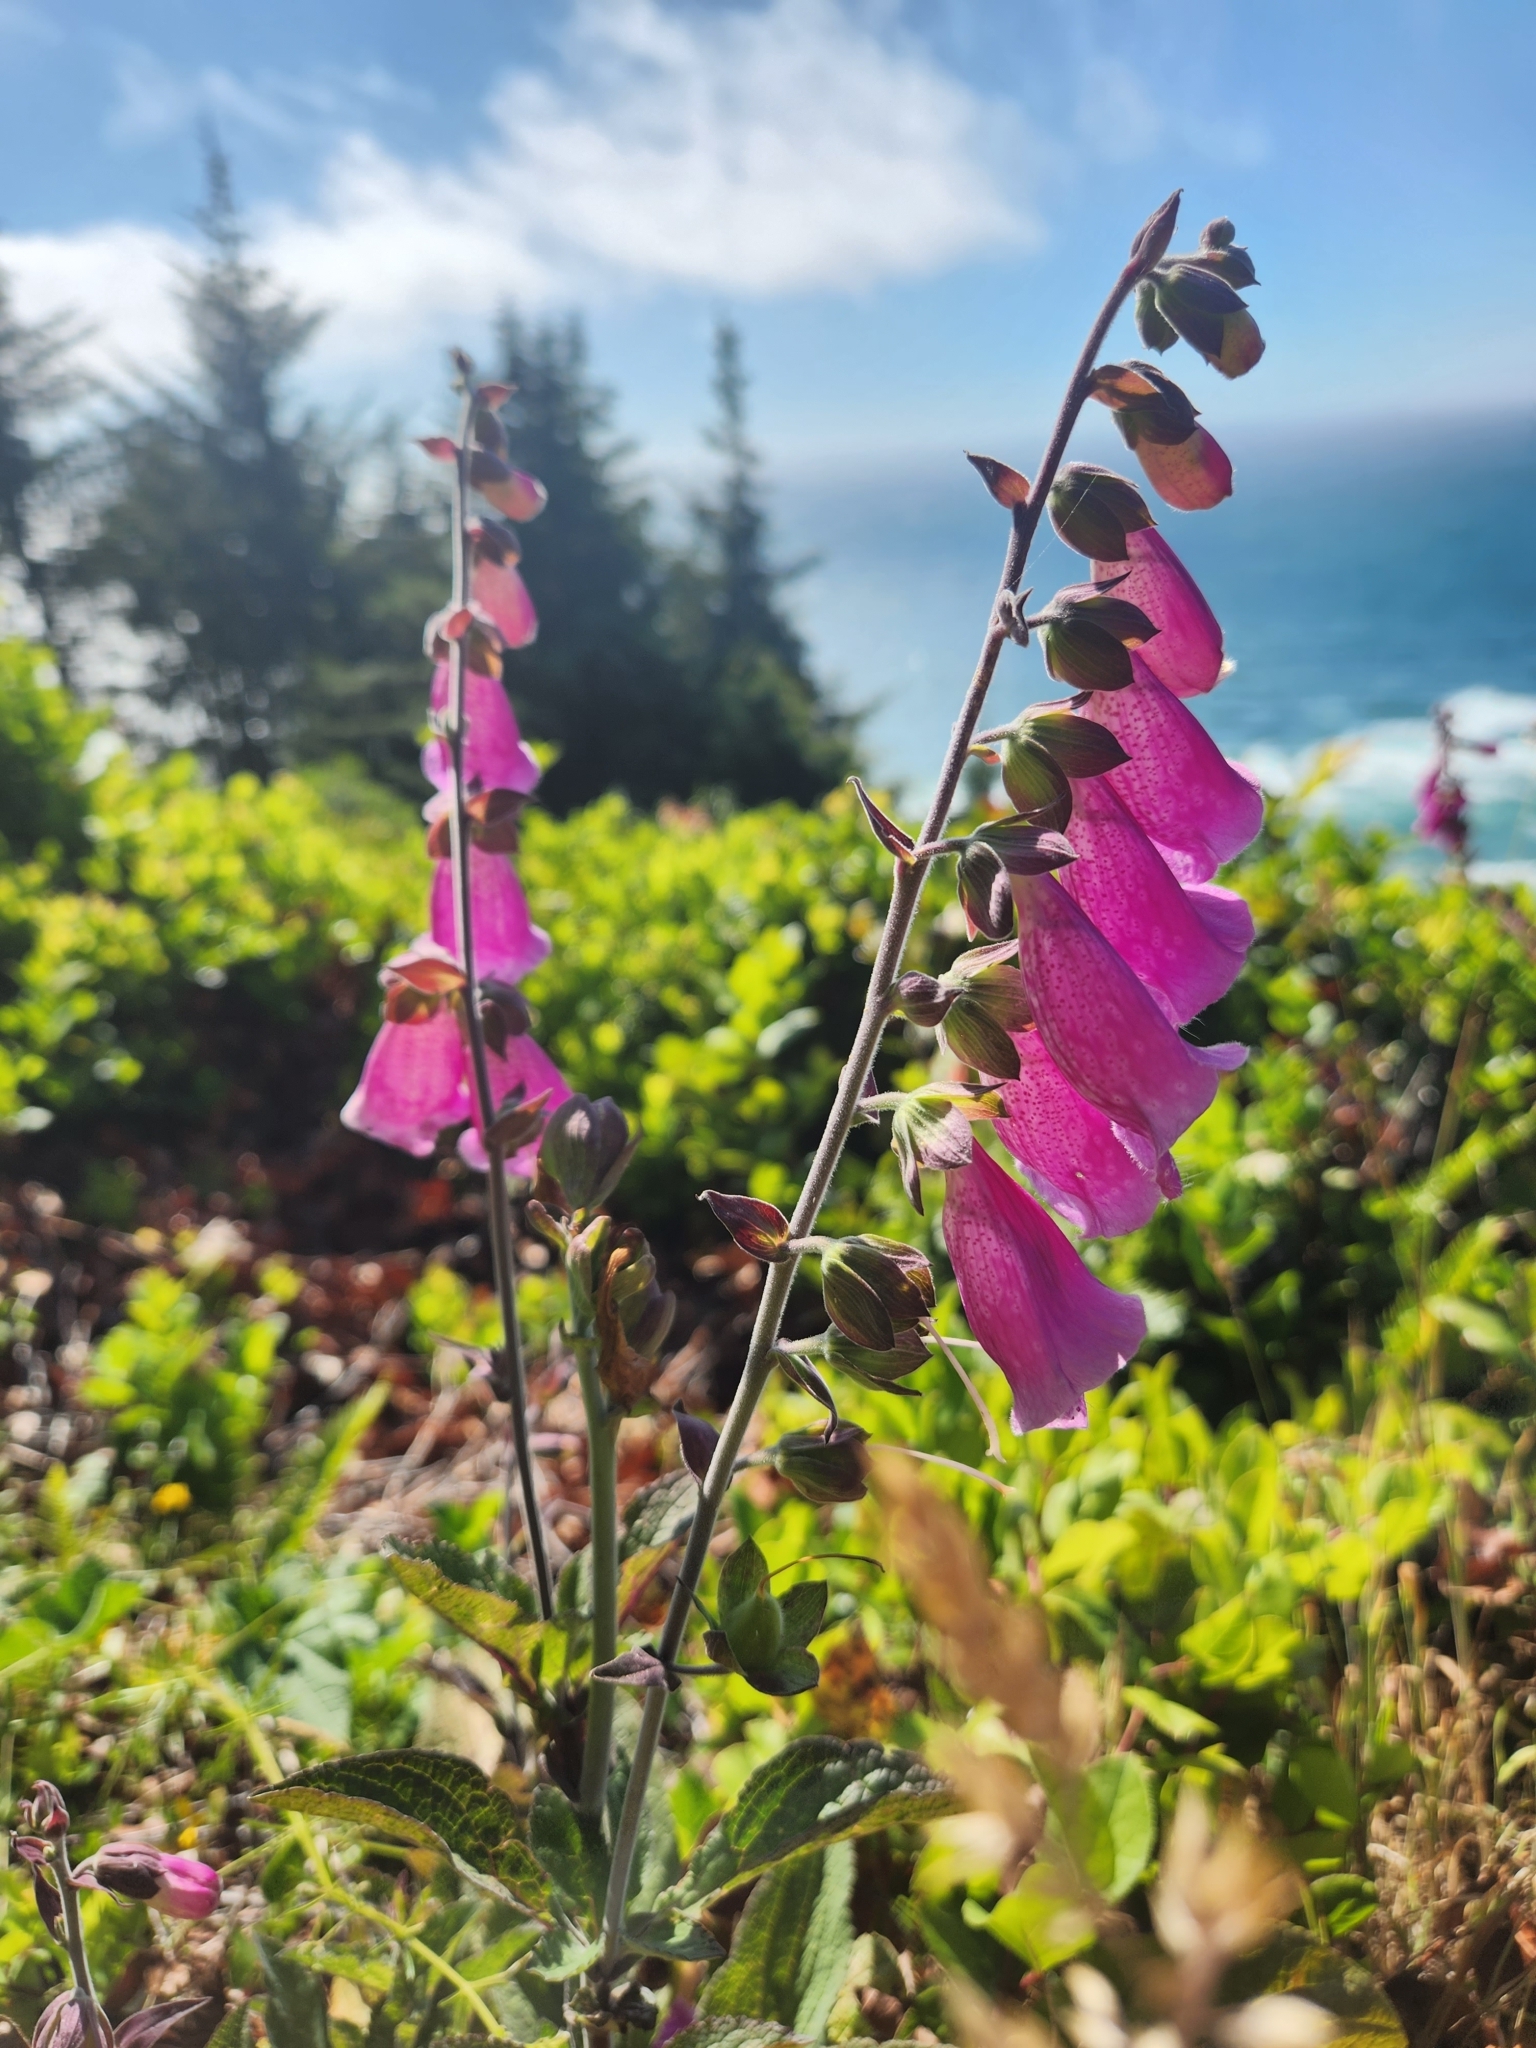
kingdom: Plantae
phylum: Tracheophyta
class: Magnoliopsida
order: Lamiales
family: Plantaginaceae
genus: Digitalis
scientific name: Digitalis purpurea
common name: Foxglove
